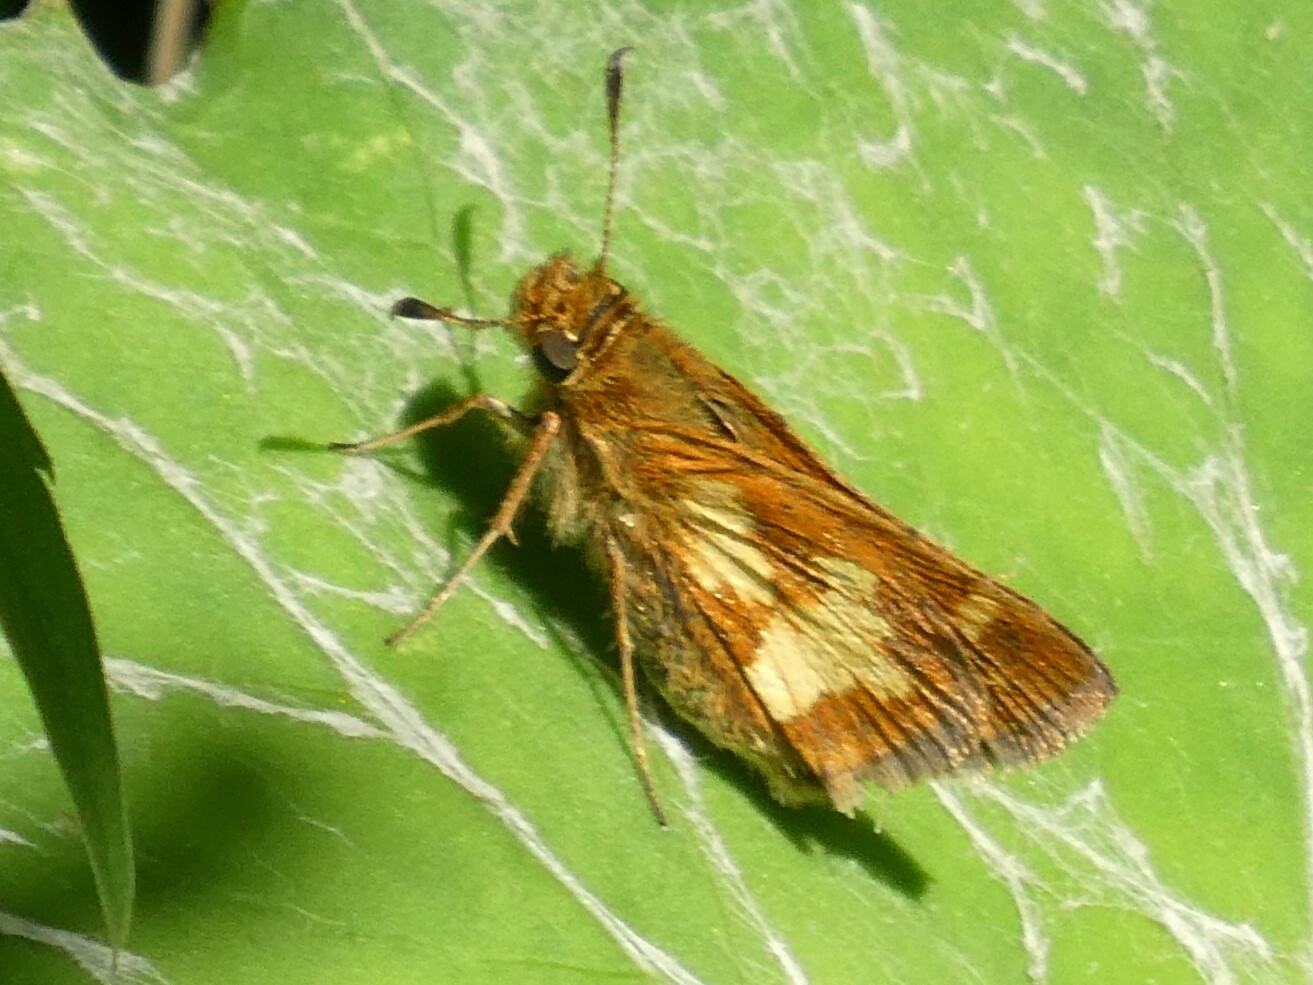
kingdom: Animalia
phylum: Arthropoda
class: Insecta
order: Lepidoptera
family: Hesperiidae
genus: Polites
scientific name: Polites coras
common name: Peck's skipper
